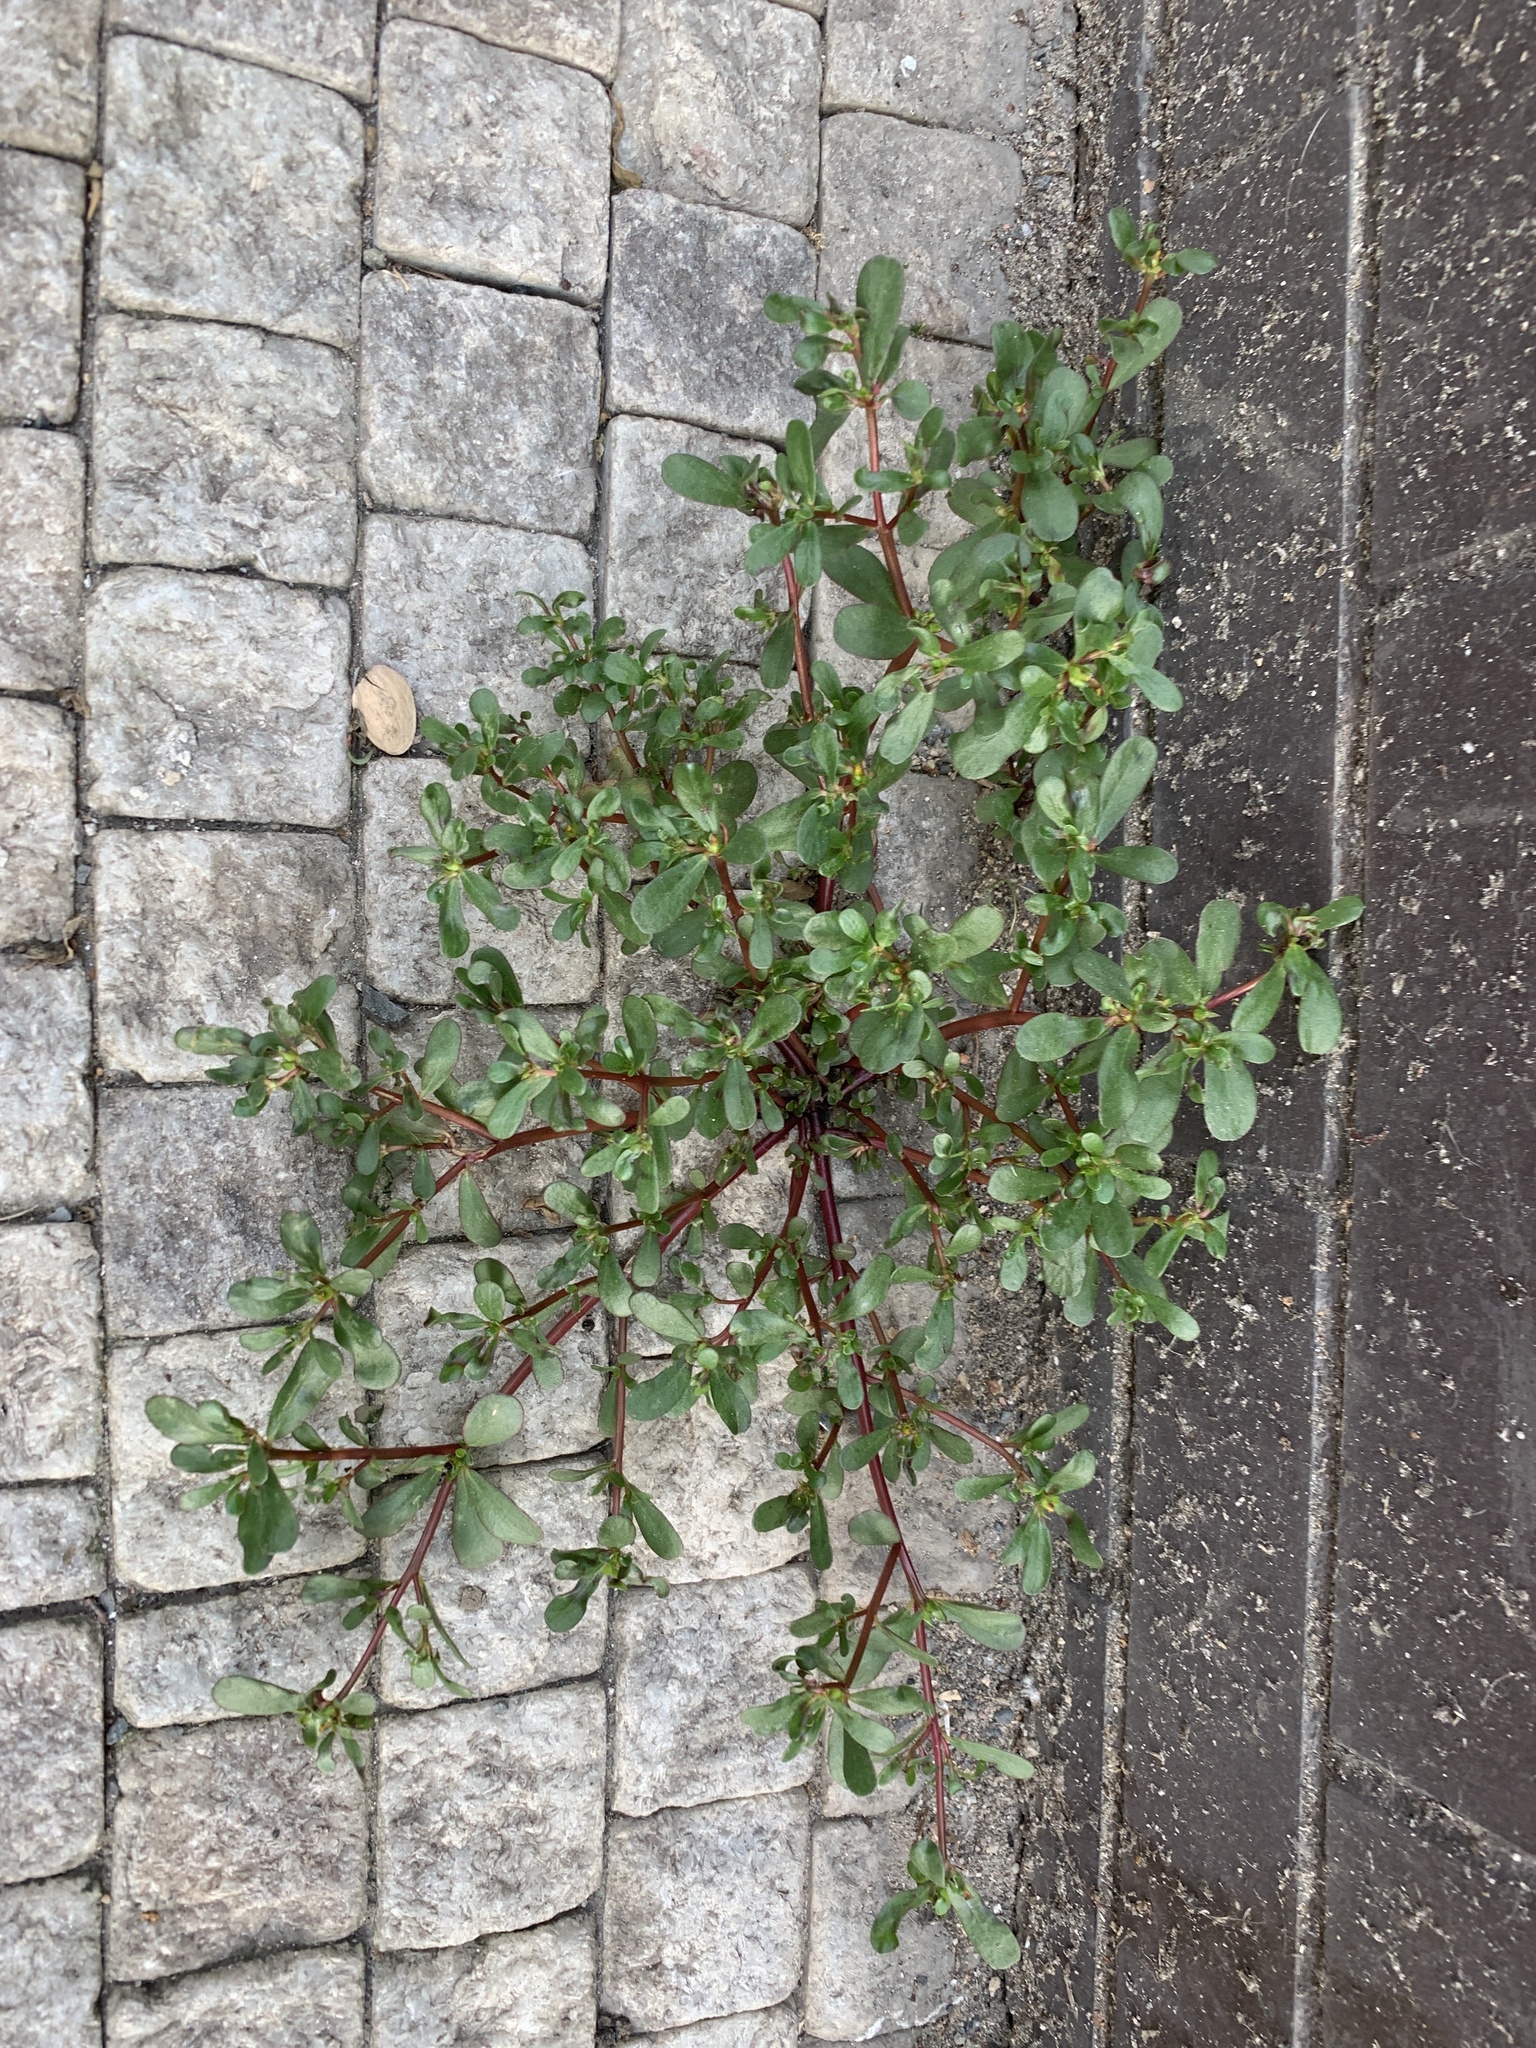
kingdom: Plantae
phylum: Tracheophyta
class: Magnoliopsida
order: Caryophyllales
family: Portulacaceae
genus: Portulaca
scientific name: Portulaca oleracea
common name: Common purslane
